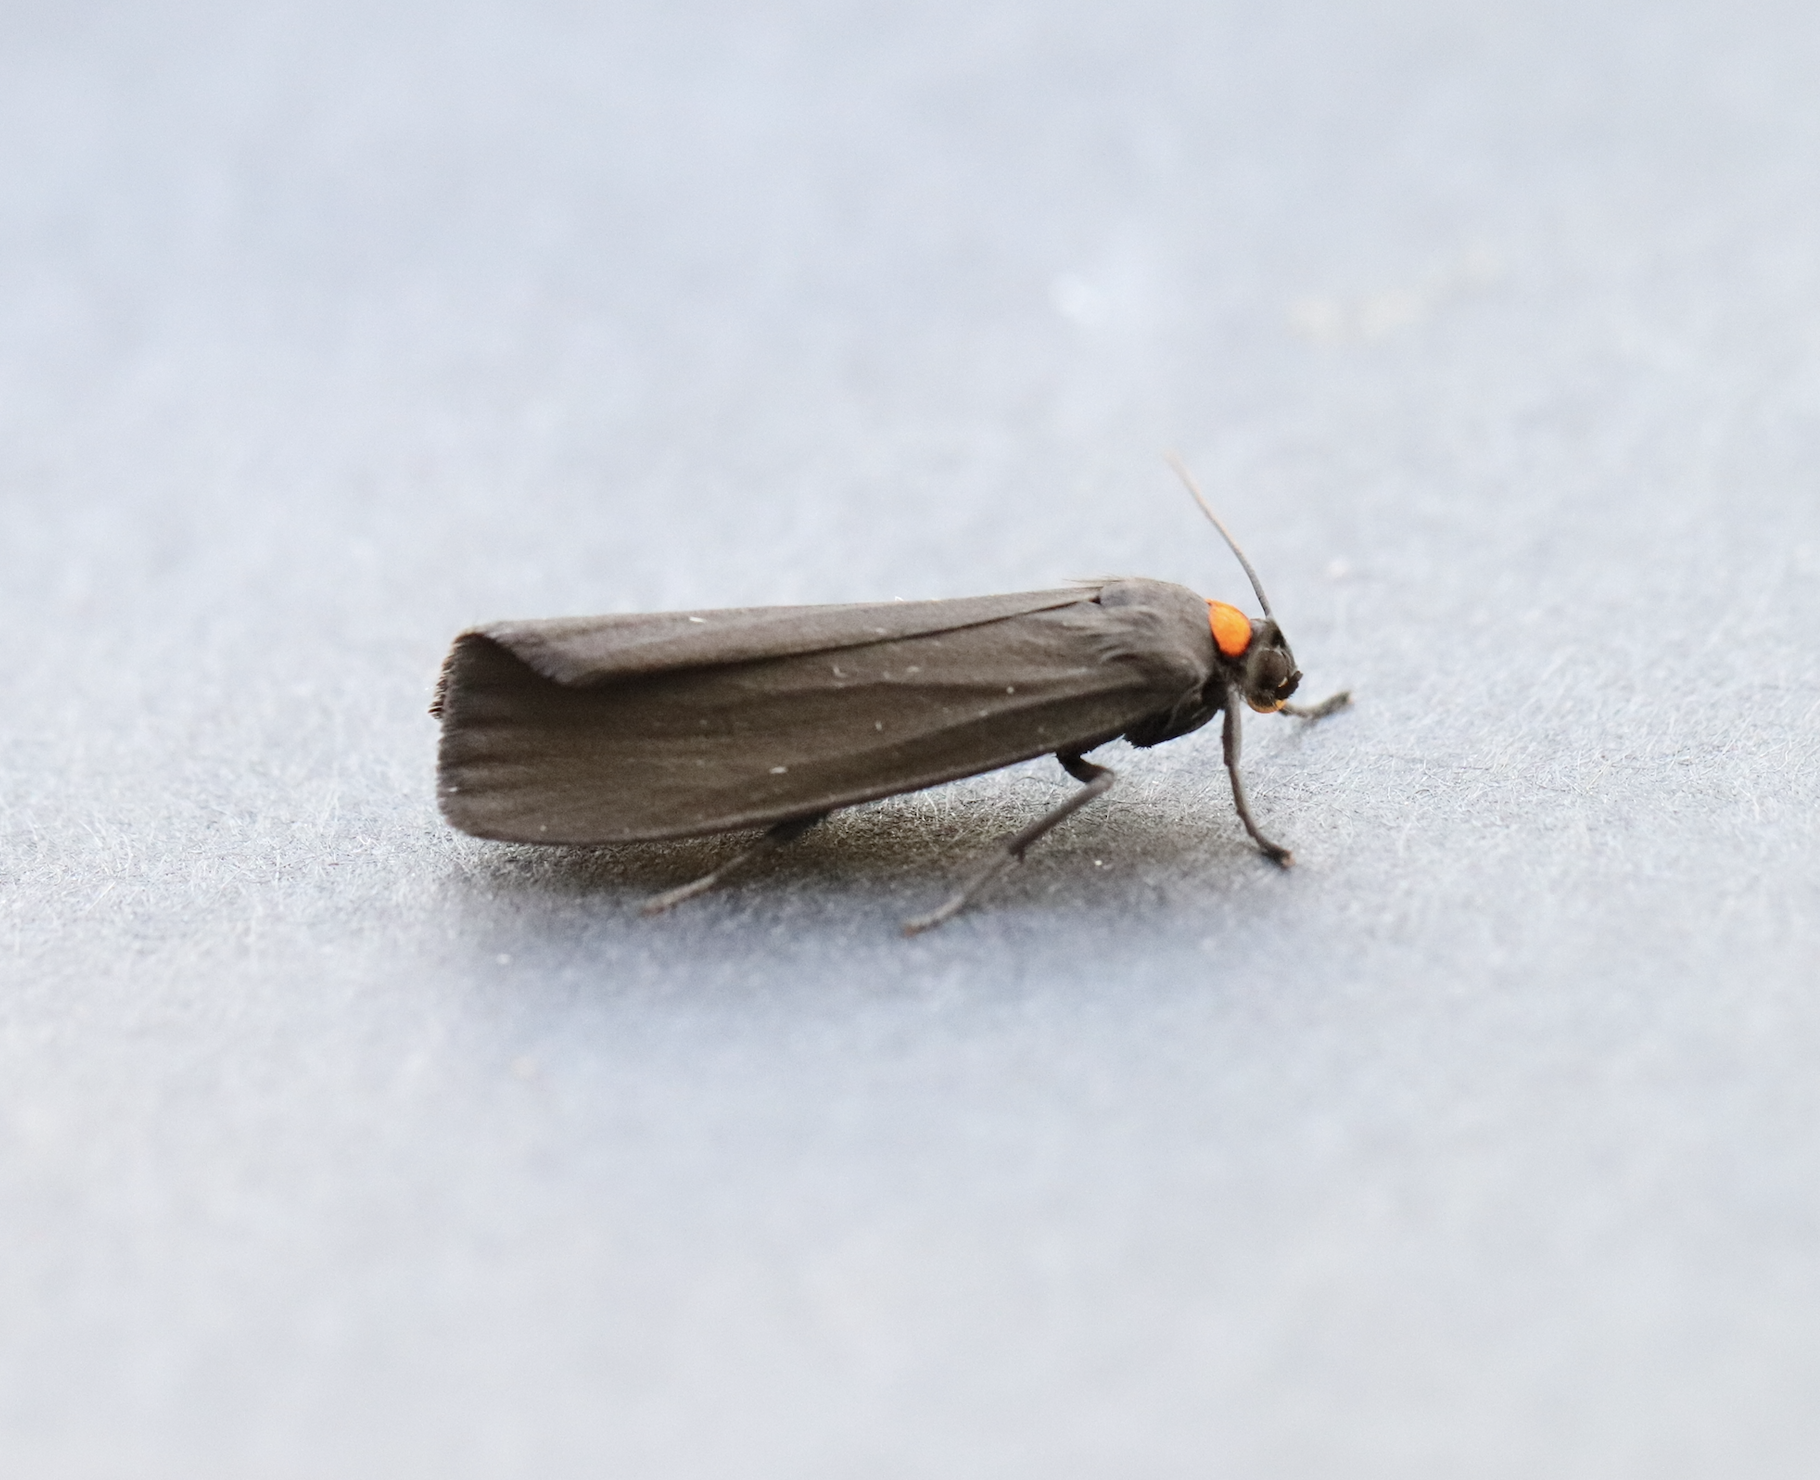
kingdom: Animalia
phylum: Arthropoda
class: Insecta
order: Lepidoptera
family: Erebidae
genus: Atolmis
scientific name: Atolmis rubricollis
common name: Red-necked footman
